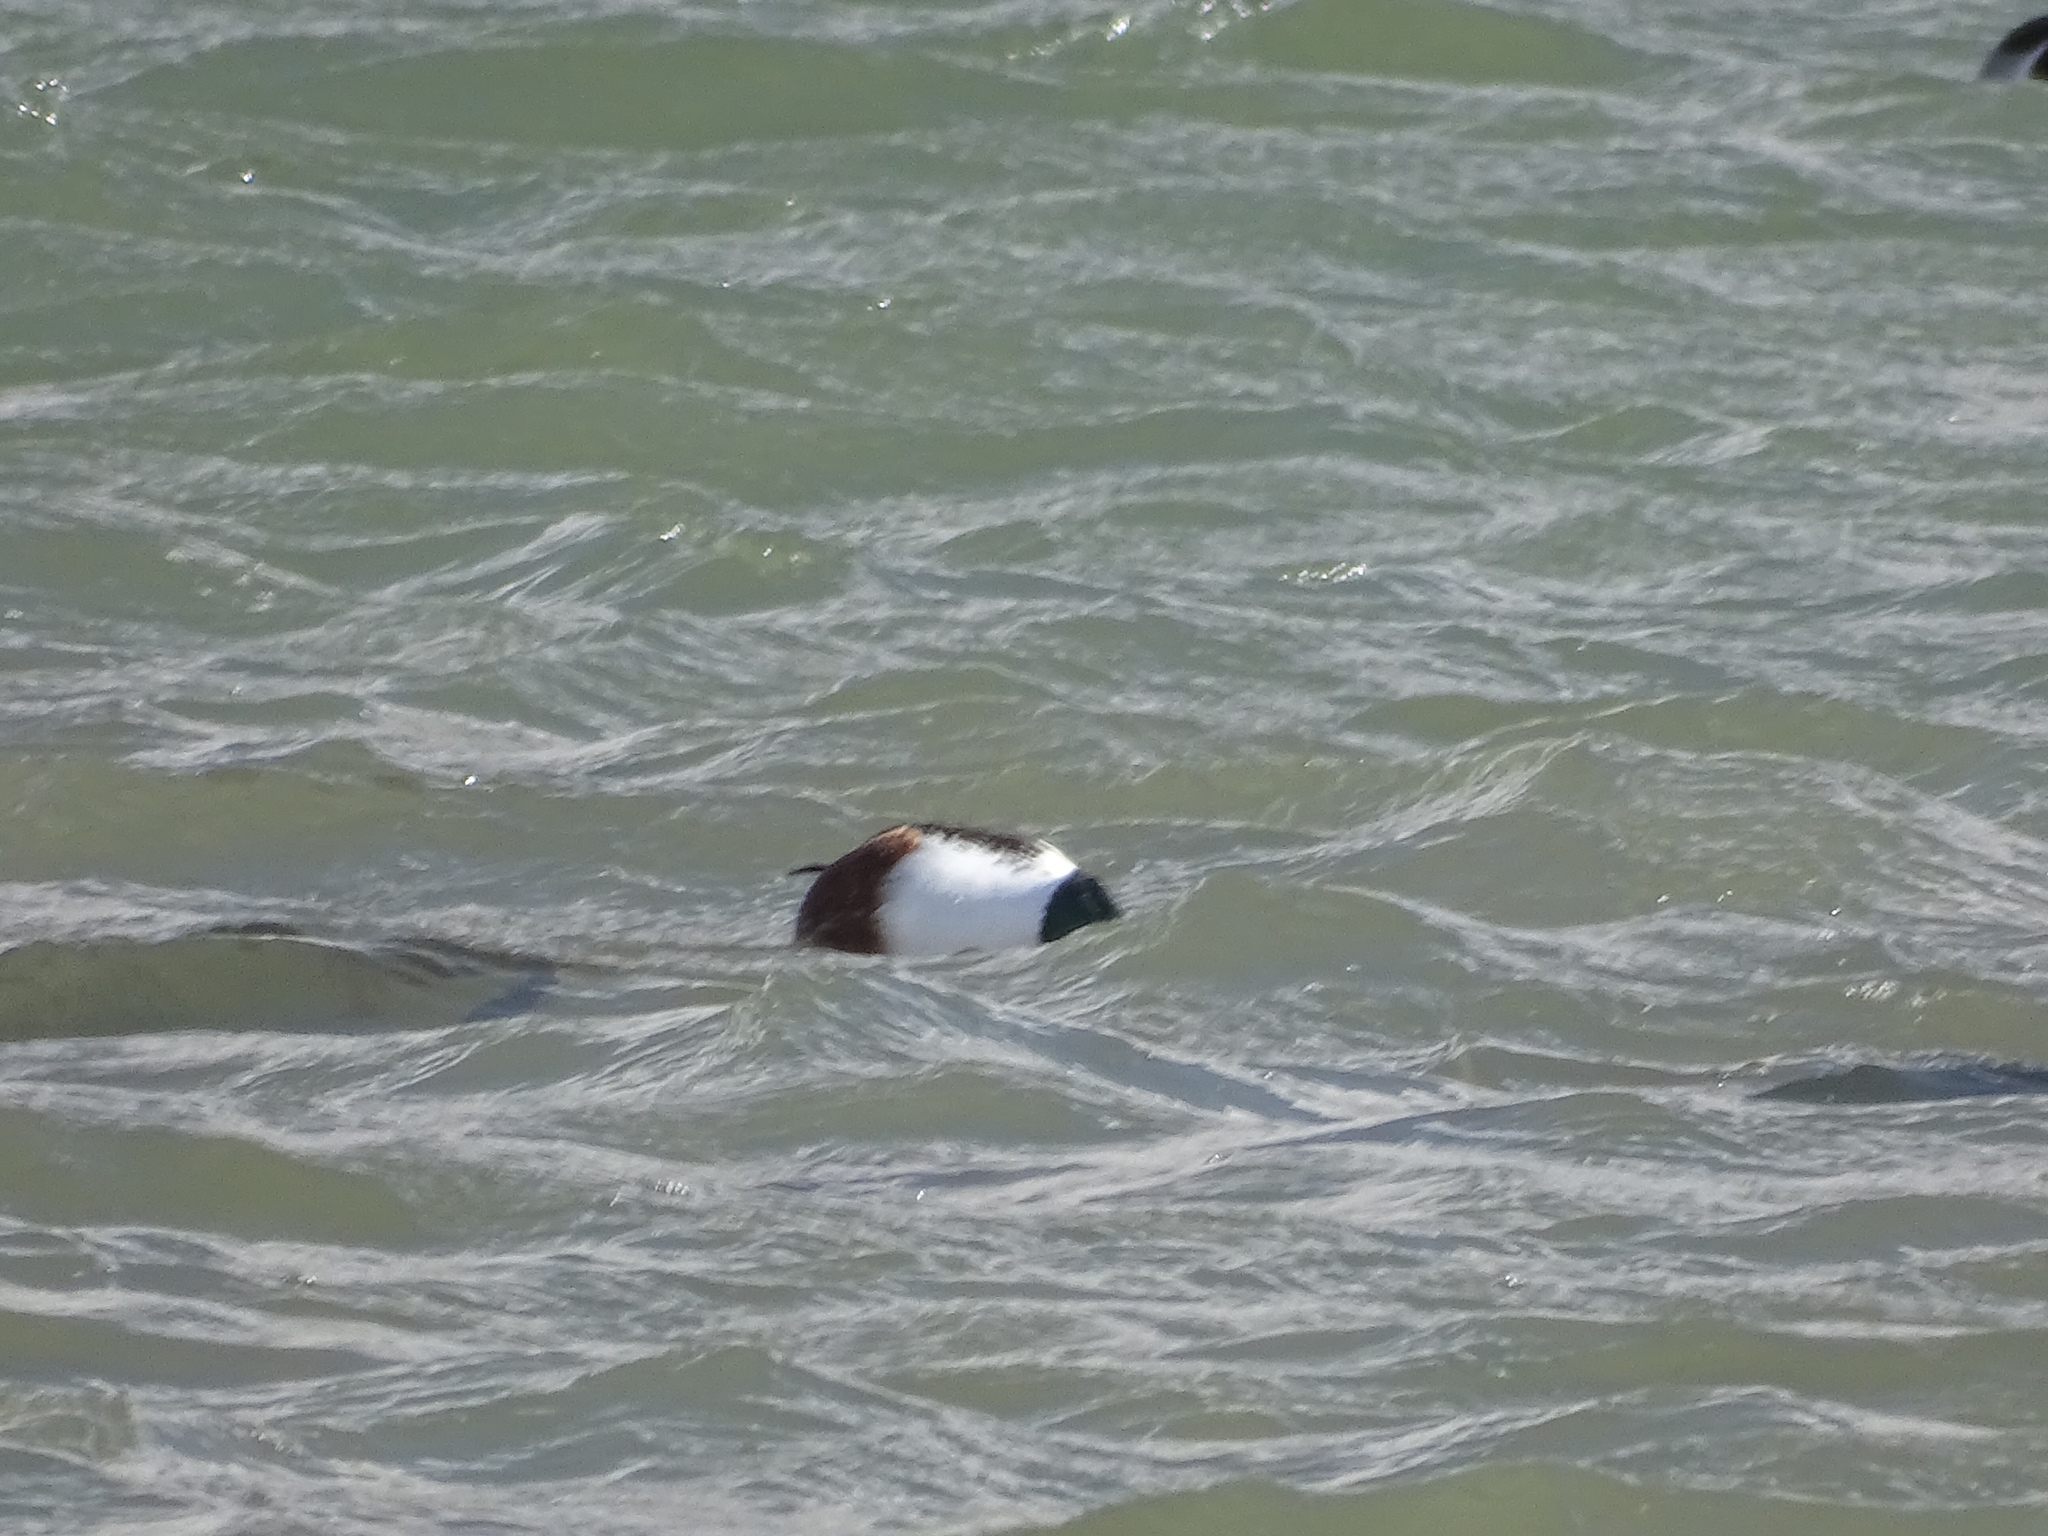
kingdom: Animalia
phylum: Chordata
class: Aves
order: Anseriformes
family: Anatidae
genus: Spatula
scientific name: Spatula clypeata
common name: Northern shoveler
